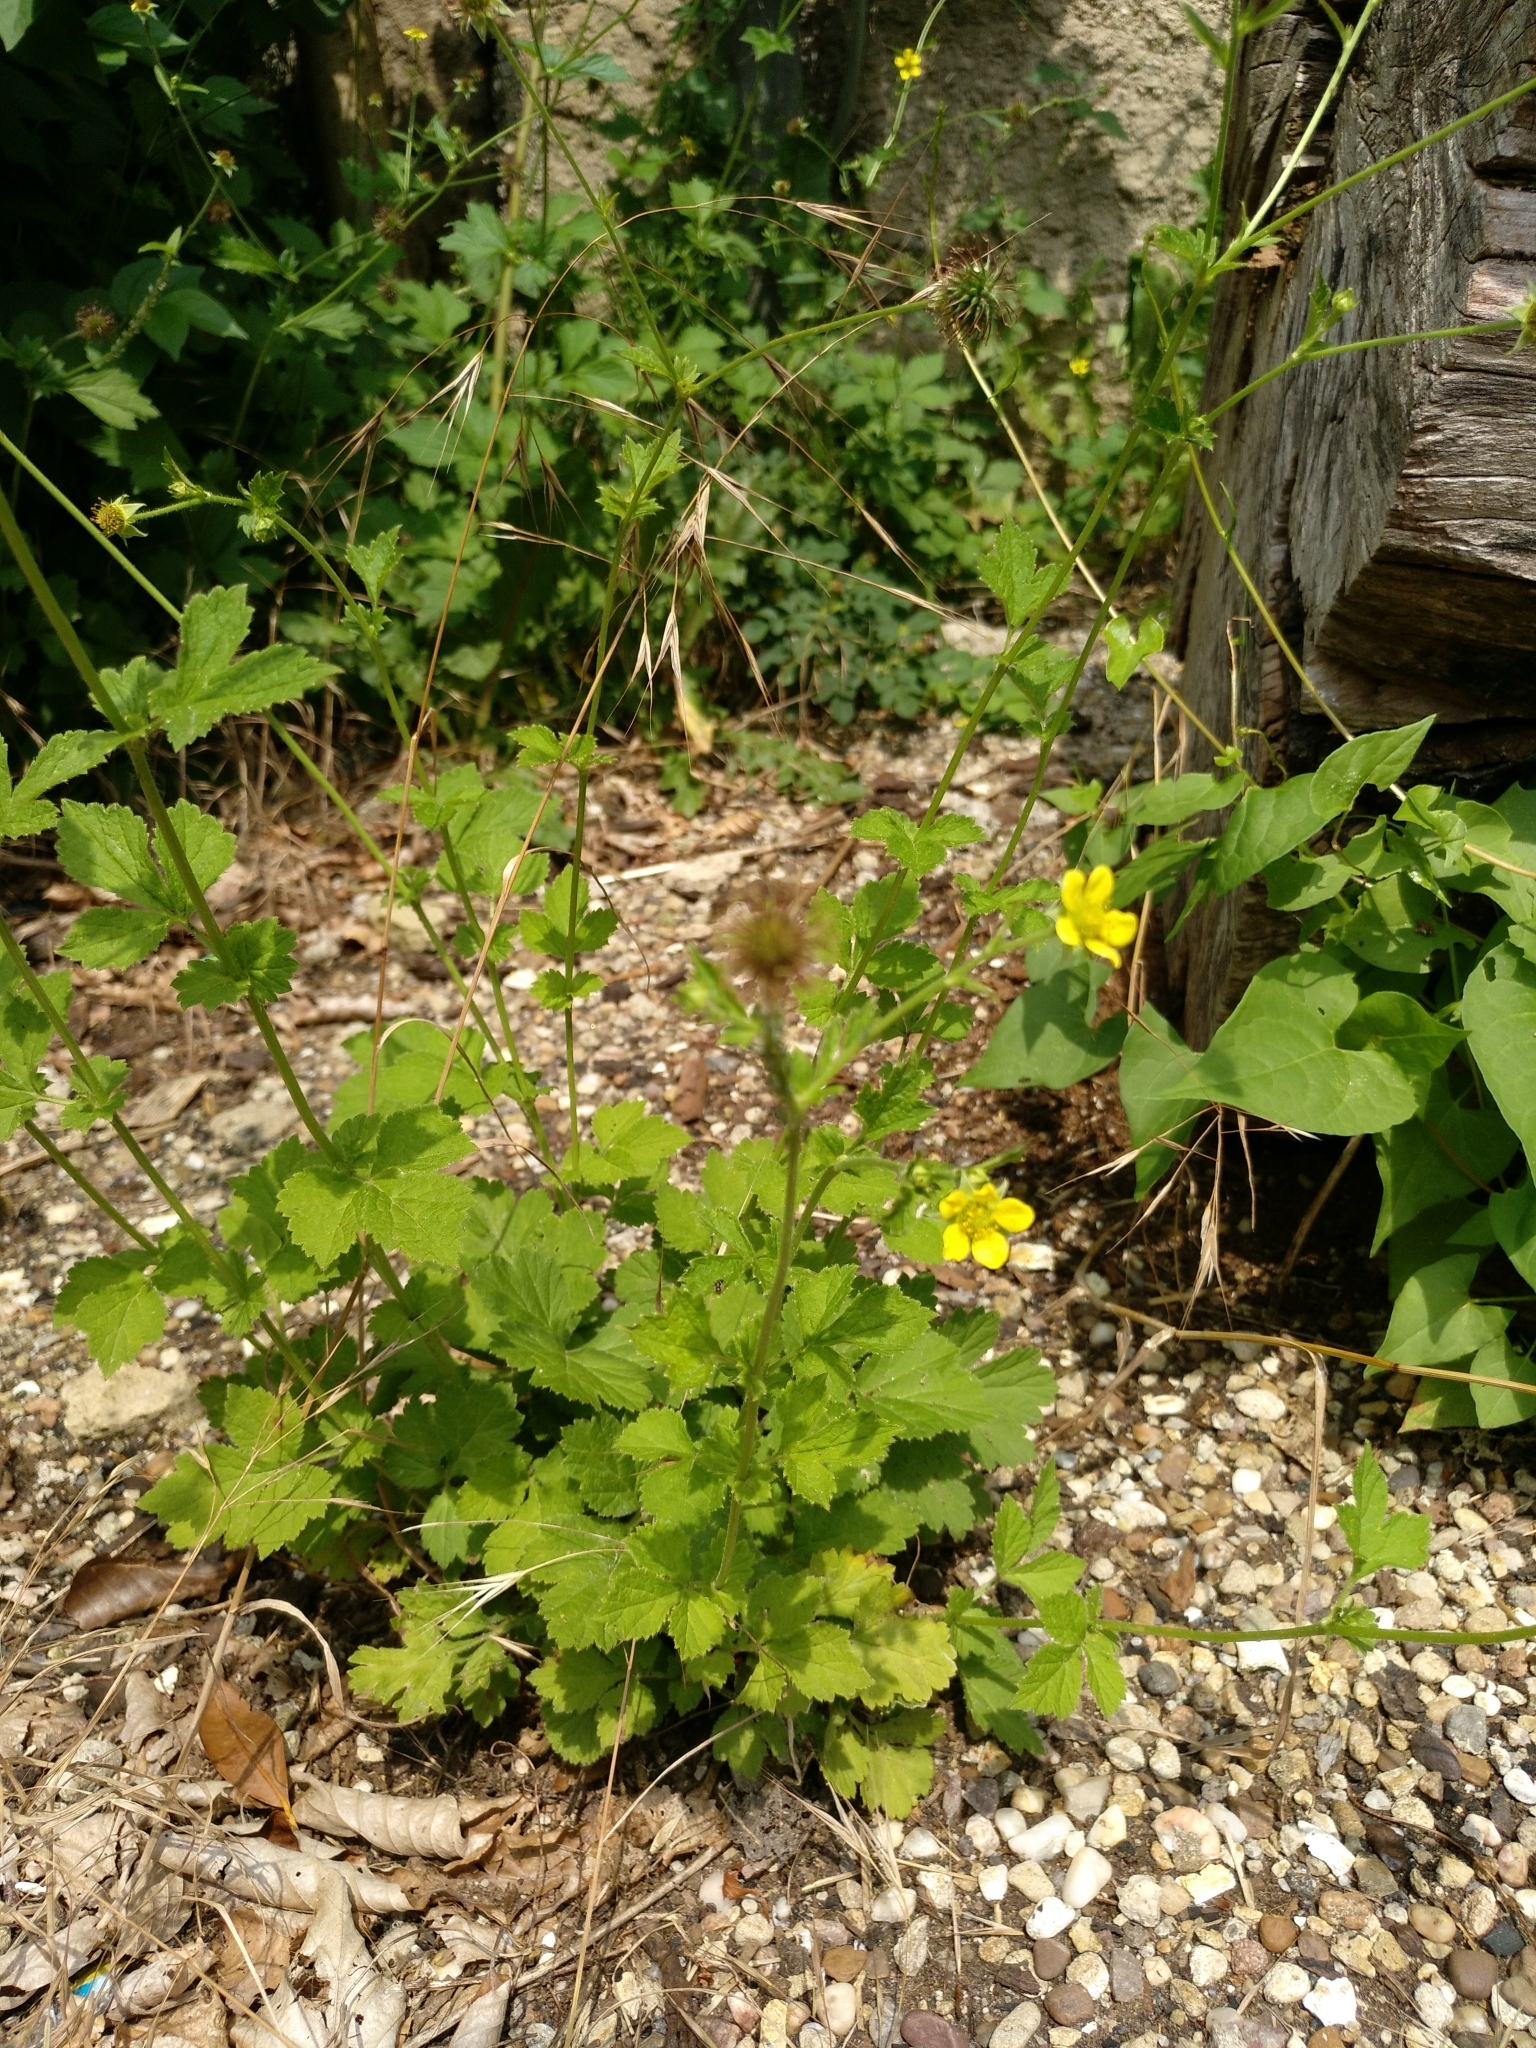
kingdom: Plantae
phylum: Tracheophyta
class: Magnoliopsida
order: Rosales
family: Rosaceae
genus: Geum
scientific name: Geum urbanum
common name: Wood avens
